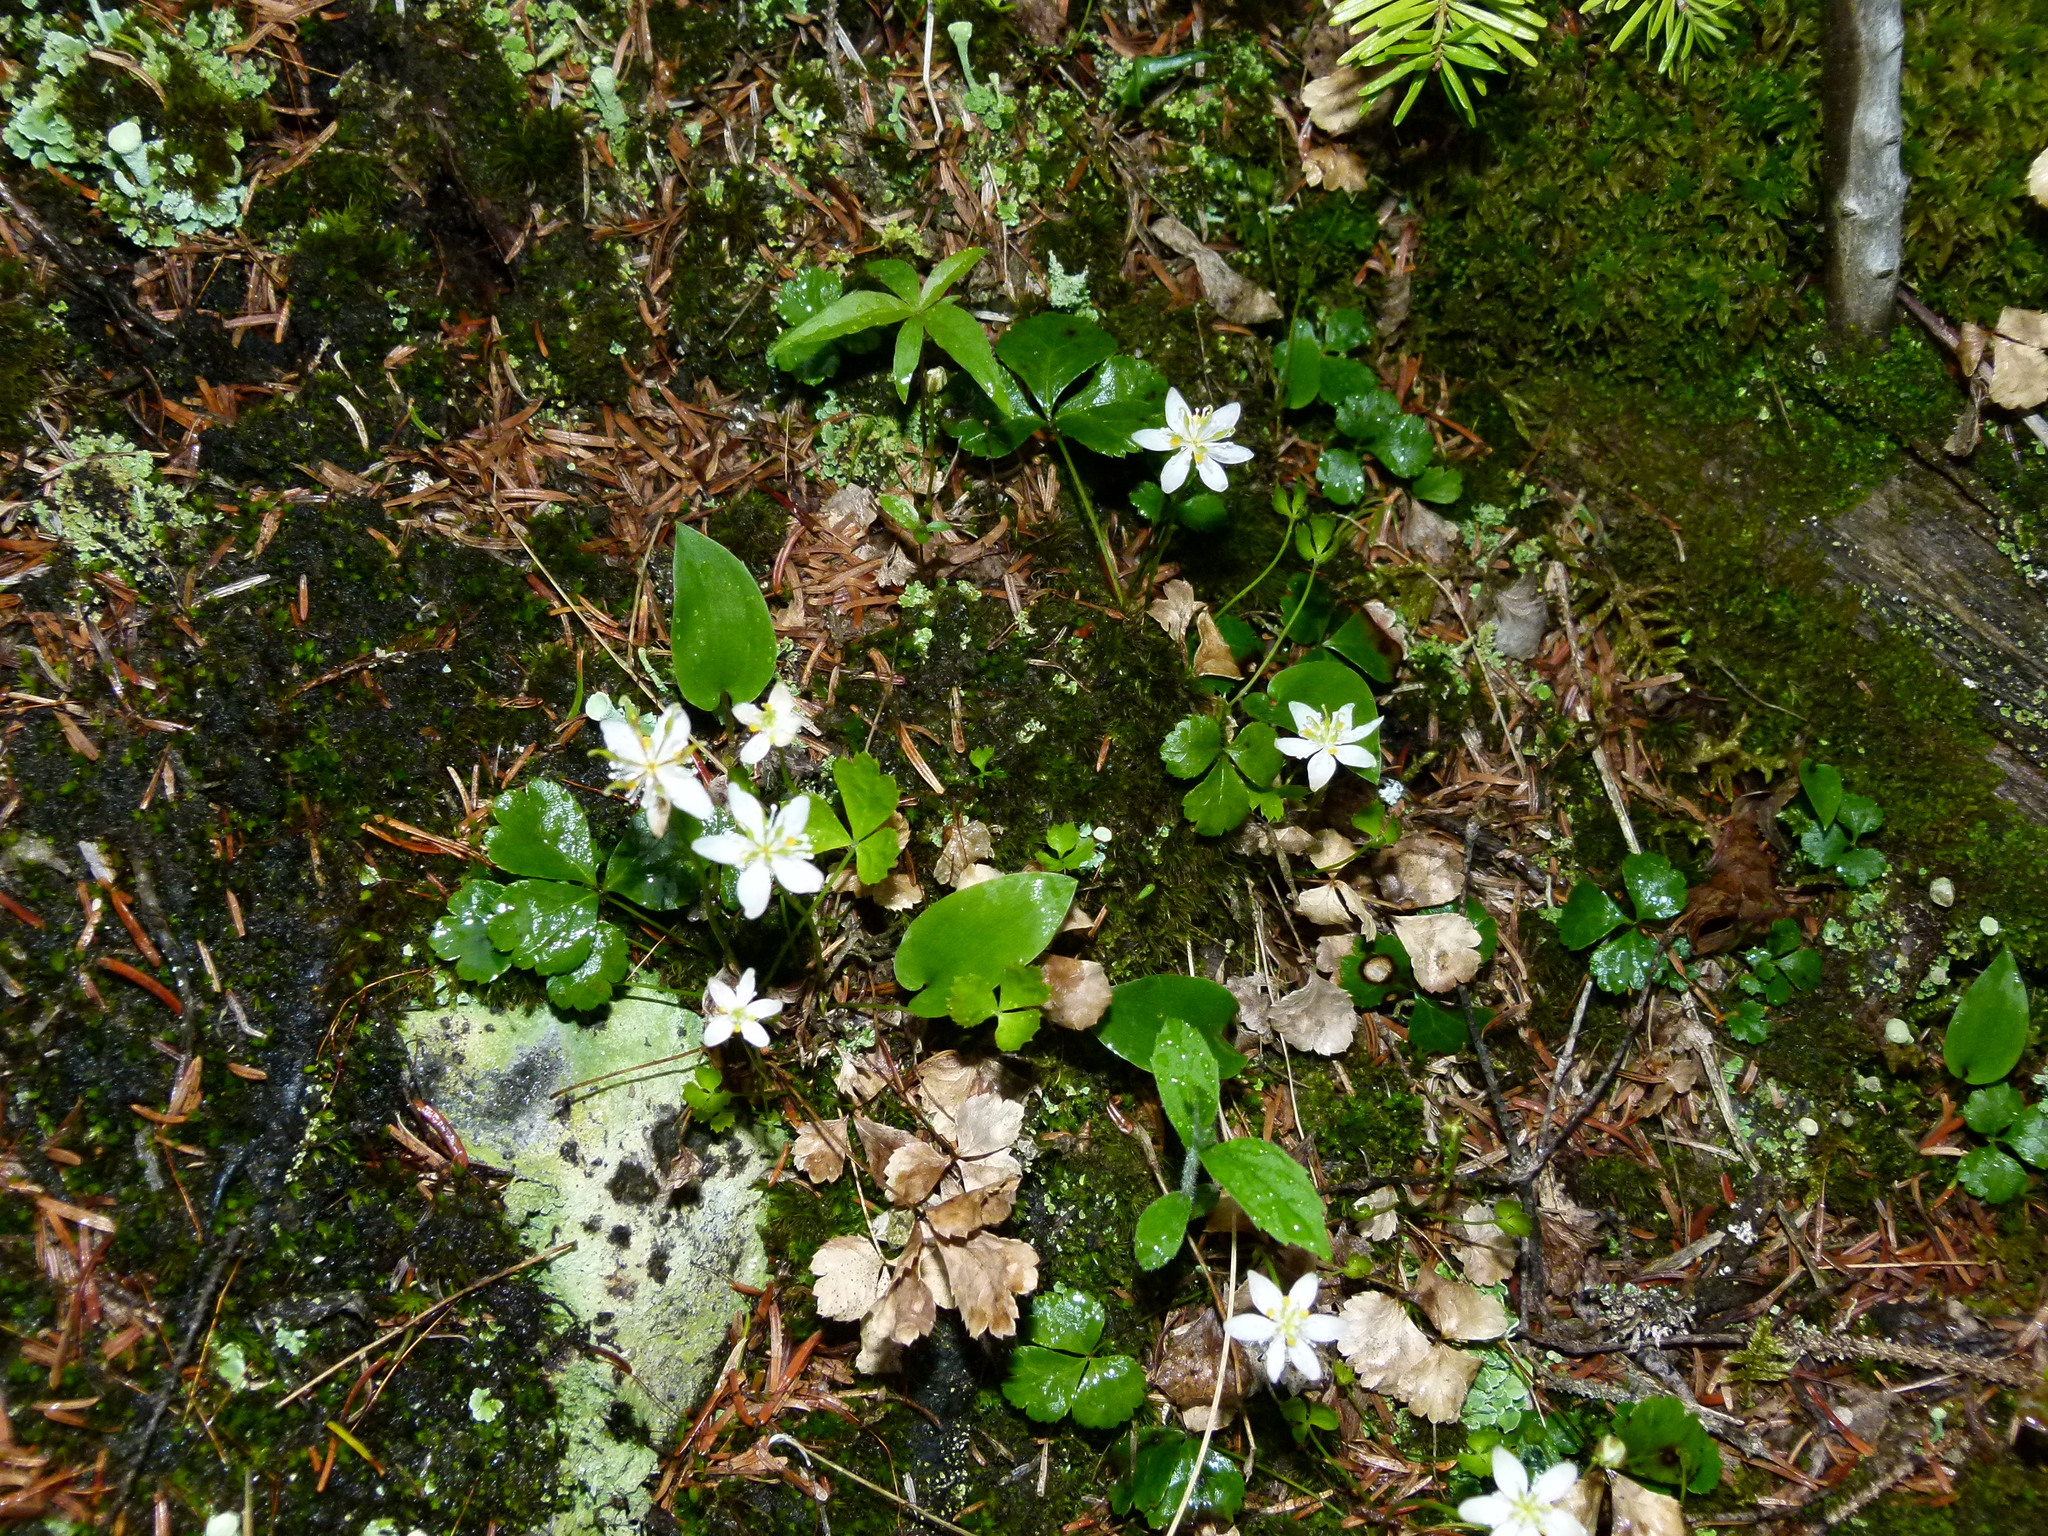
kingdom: Plantae
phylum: Tracheophyta
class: Magnoliopsida
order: Ranunculales
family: Ranunculaceae
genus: Coptis
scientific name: Coptis trifolia
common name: Canker-root
